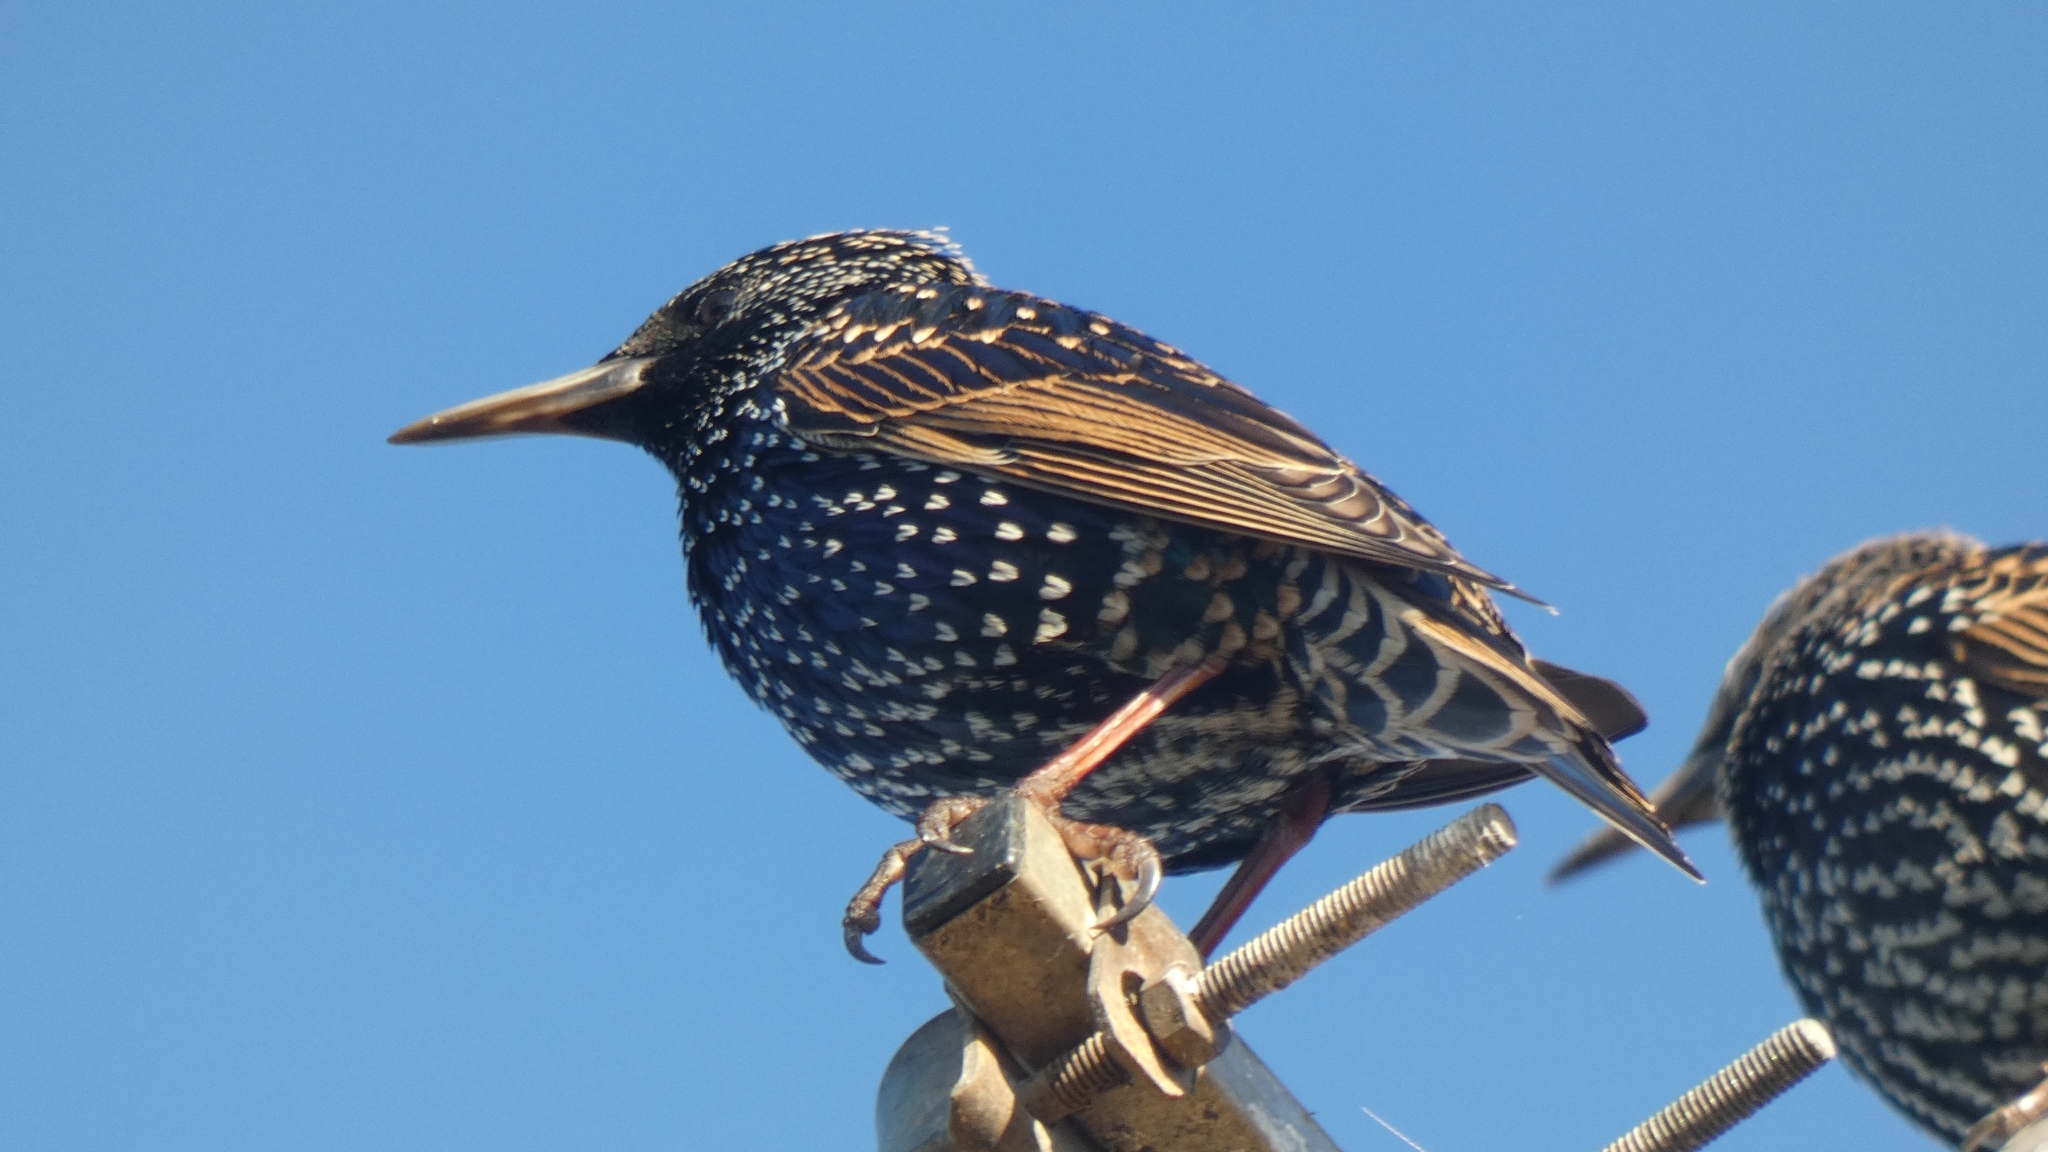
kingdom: Animalia
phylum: Chordata
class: Aves
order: Passeriformes
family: Sturnidae
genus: Sturnus
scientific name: Sturnus vulgaris
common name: Common starling
